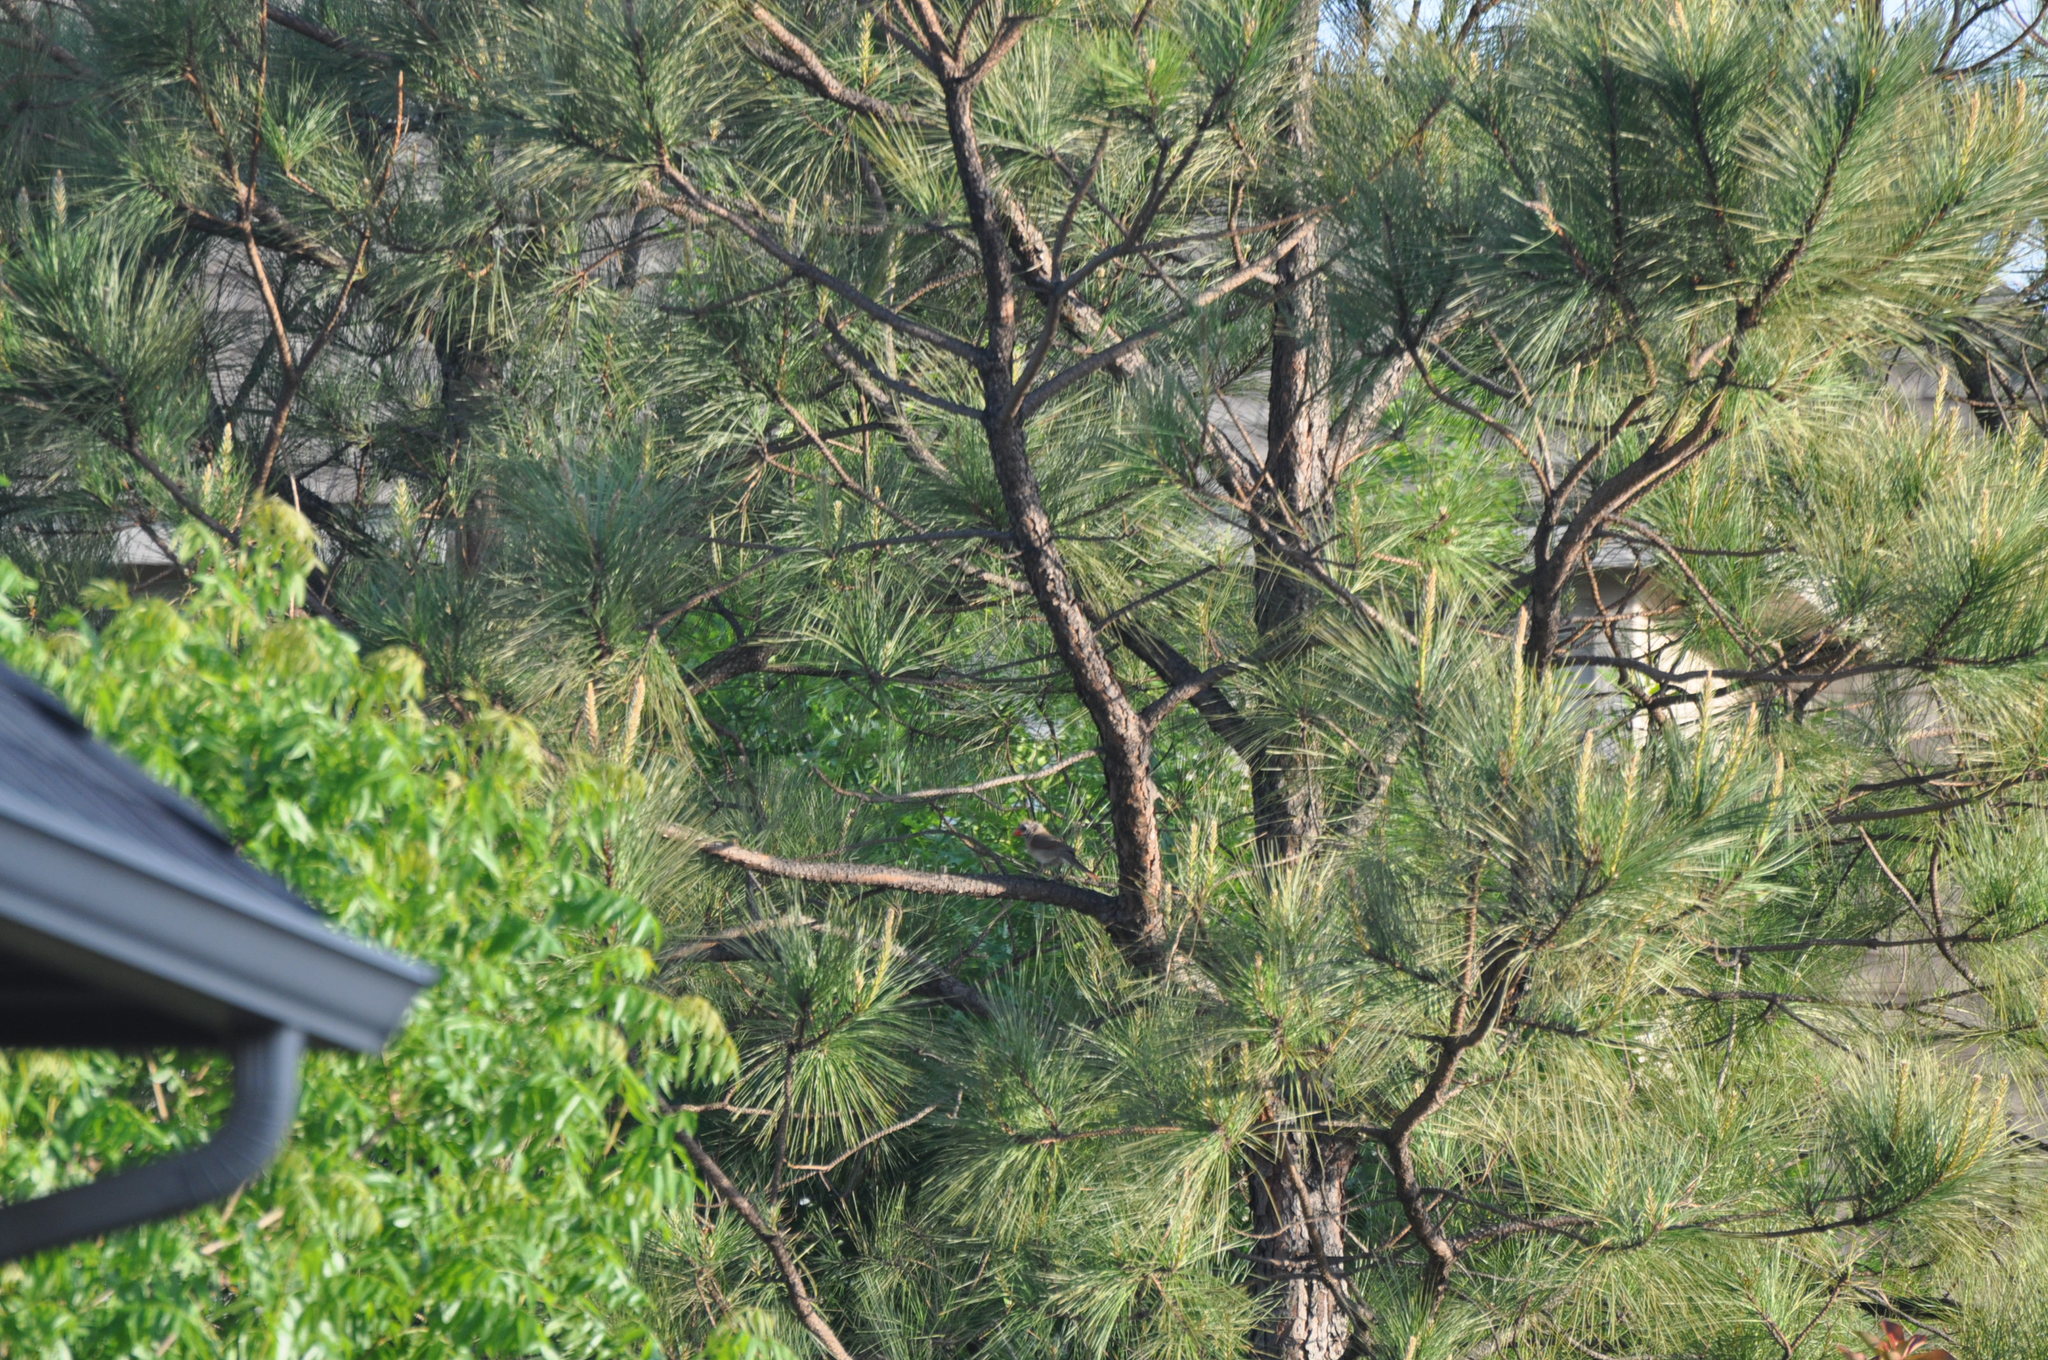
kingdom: Animalia
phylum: Chordata
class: Aves
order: Passeriformes
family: Cardinalidae
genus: Cardinalis
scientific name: Cardinalis cardinalis
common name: Northern cardinal
